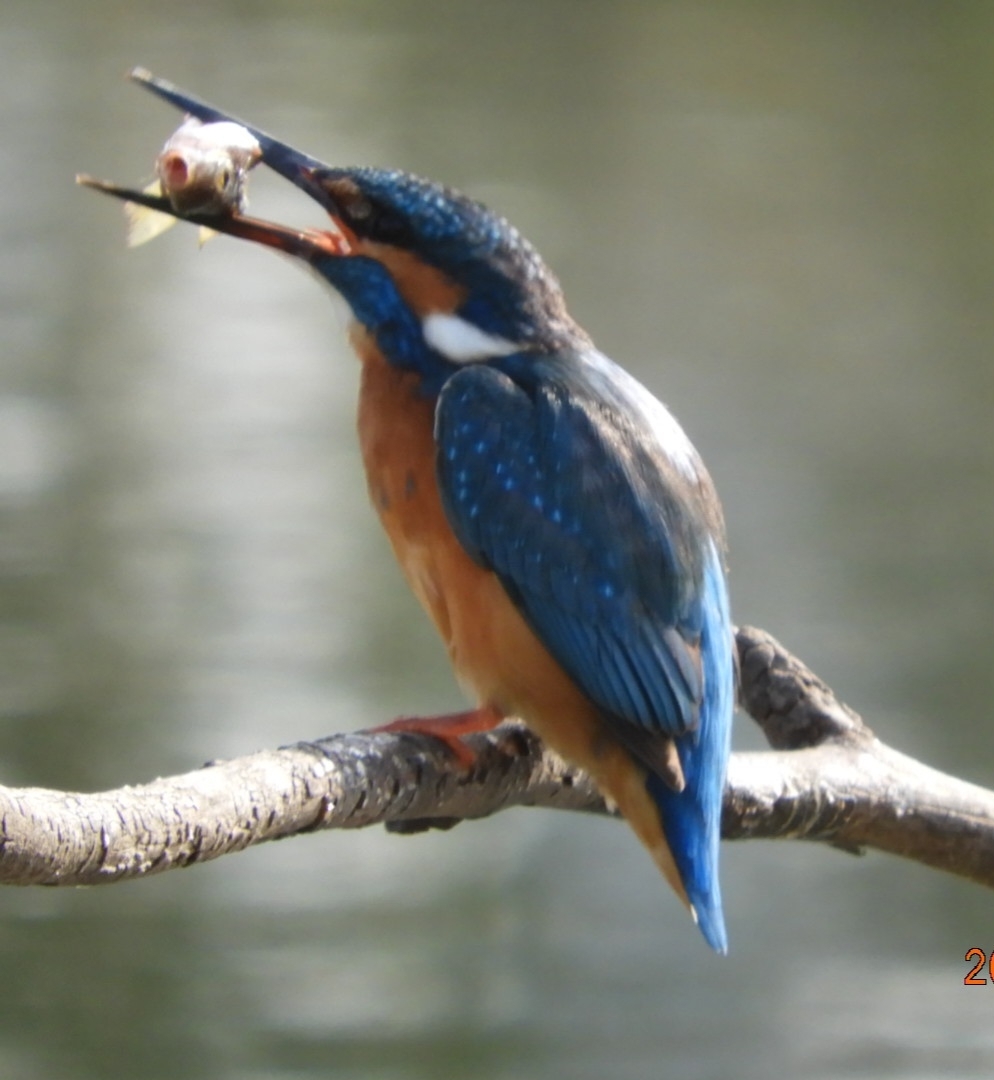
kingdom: Animalia
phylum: Chordata
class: Aves
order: Coraciiformes
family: Alcedinidae
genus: Alcedo
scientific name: Alcedo atthis
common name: Common kingfisher
